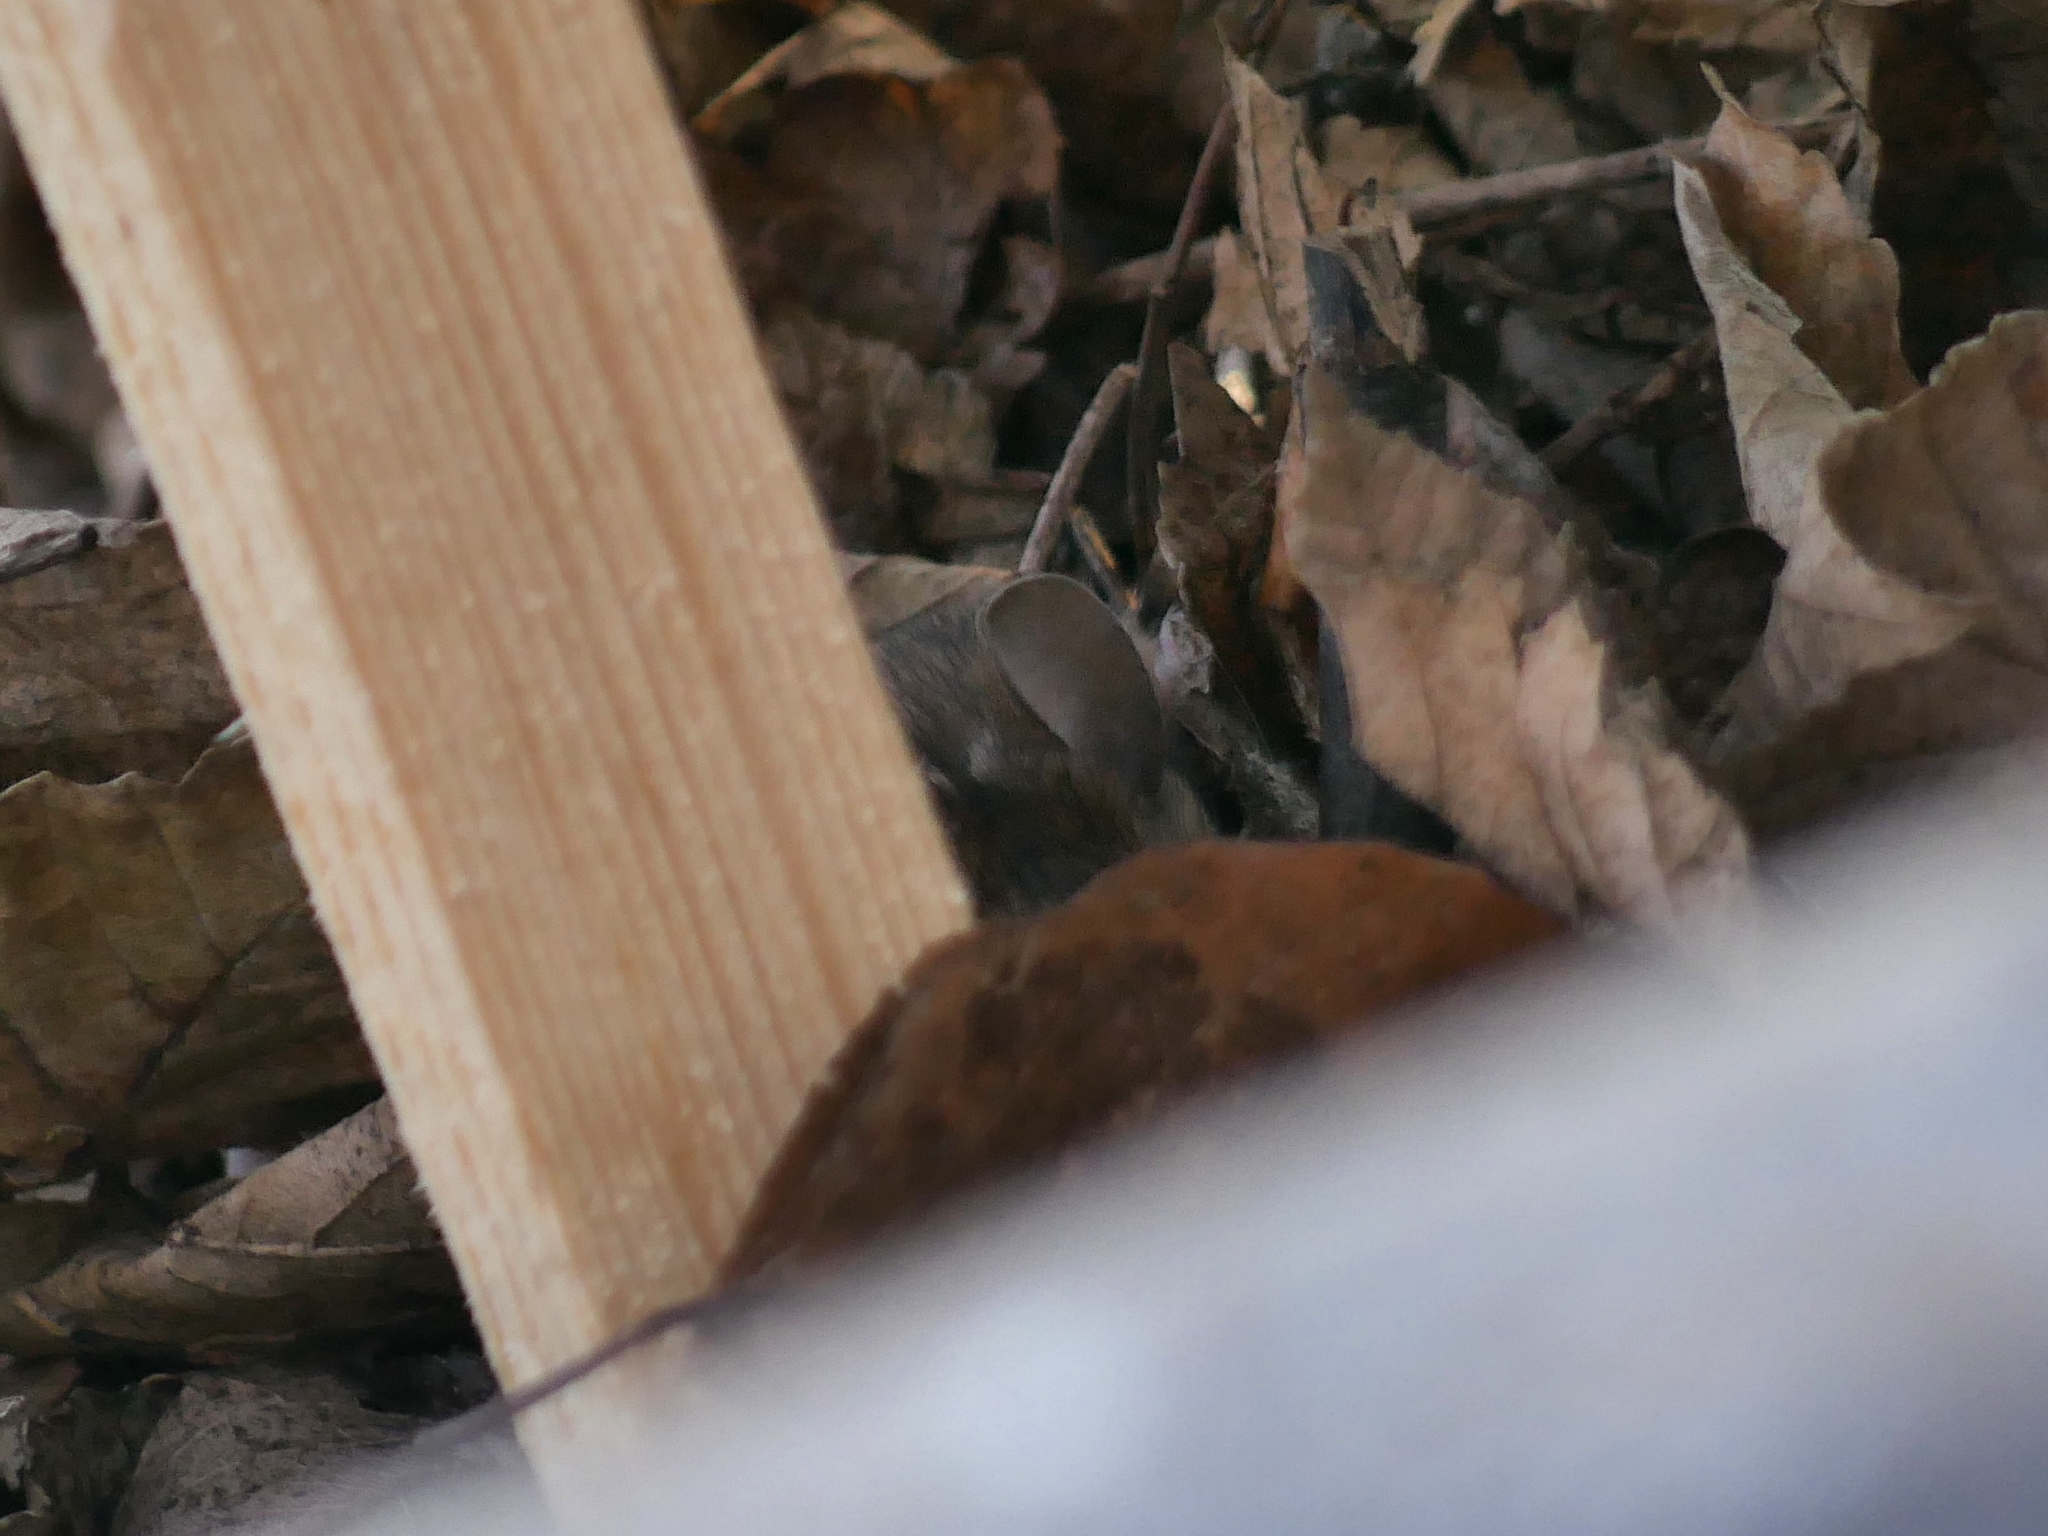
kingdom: Animalia
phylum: Chordata
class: Mammalia
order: Rodentia
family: Muridae
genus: Mus
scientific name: Mus musculus
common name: House mouse
